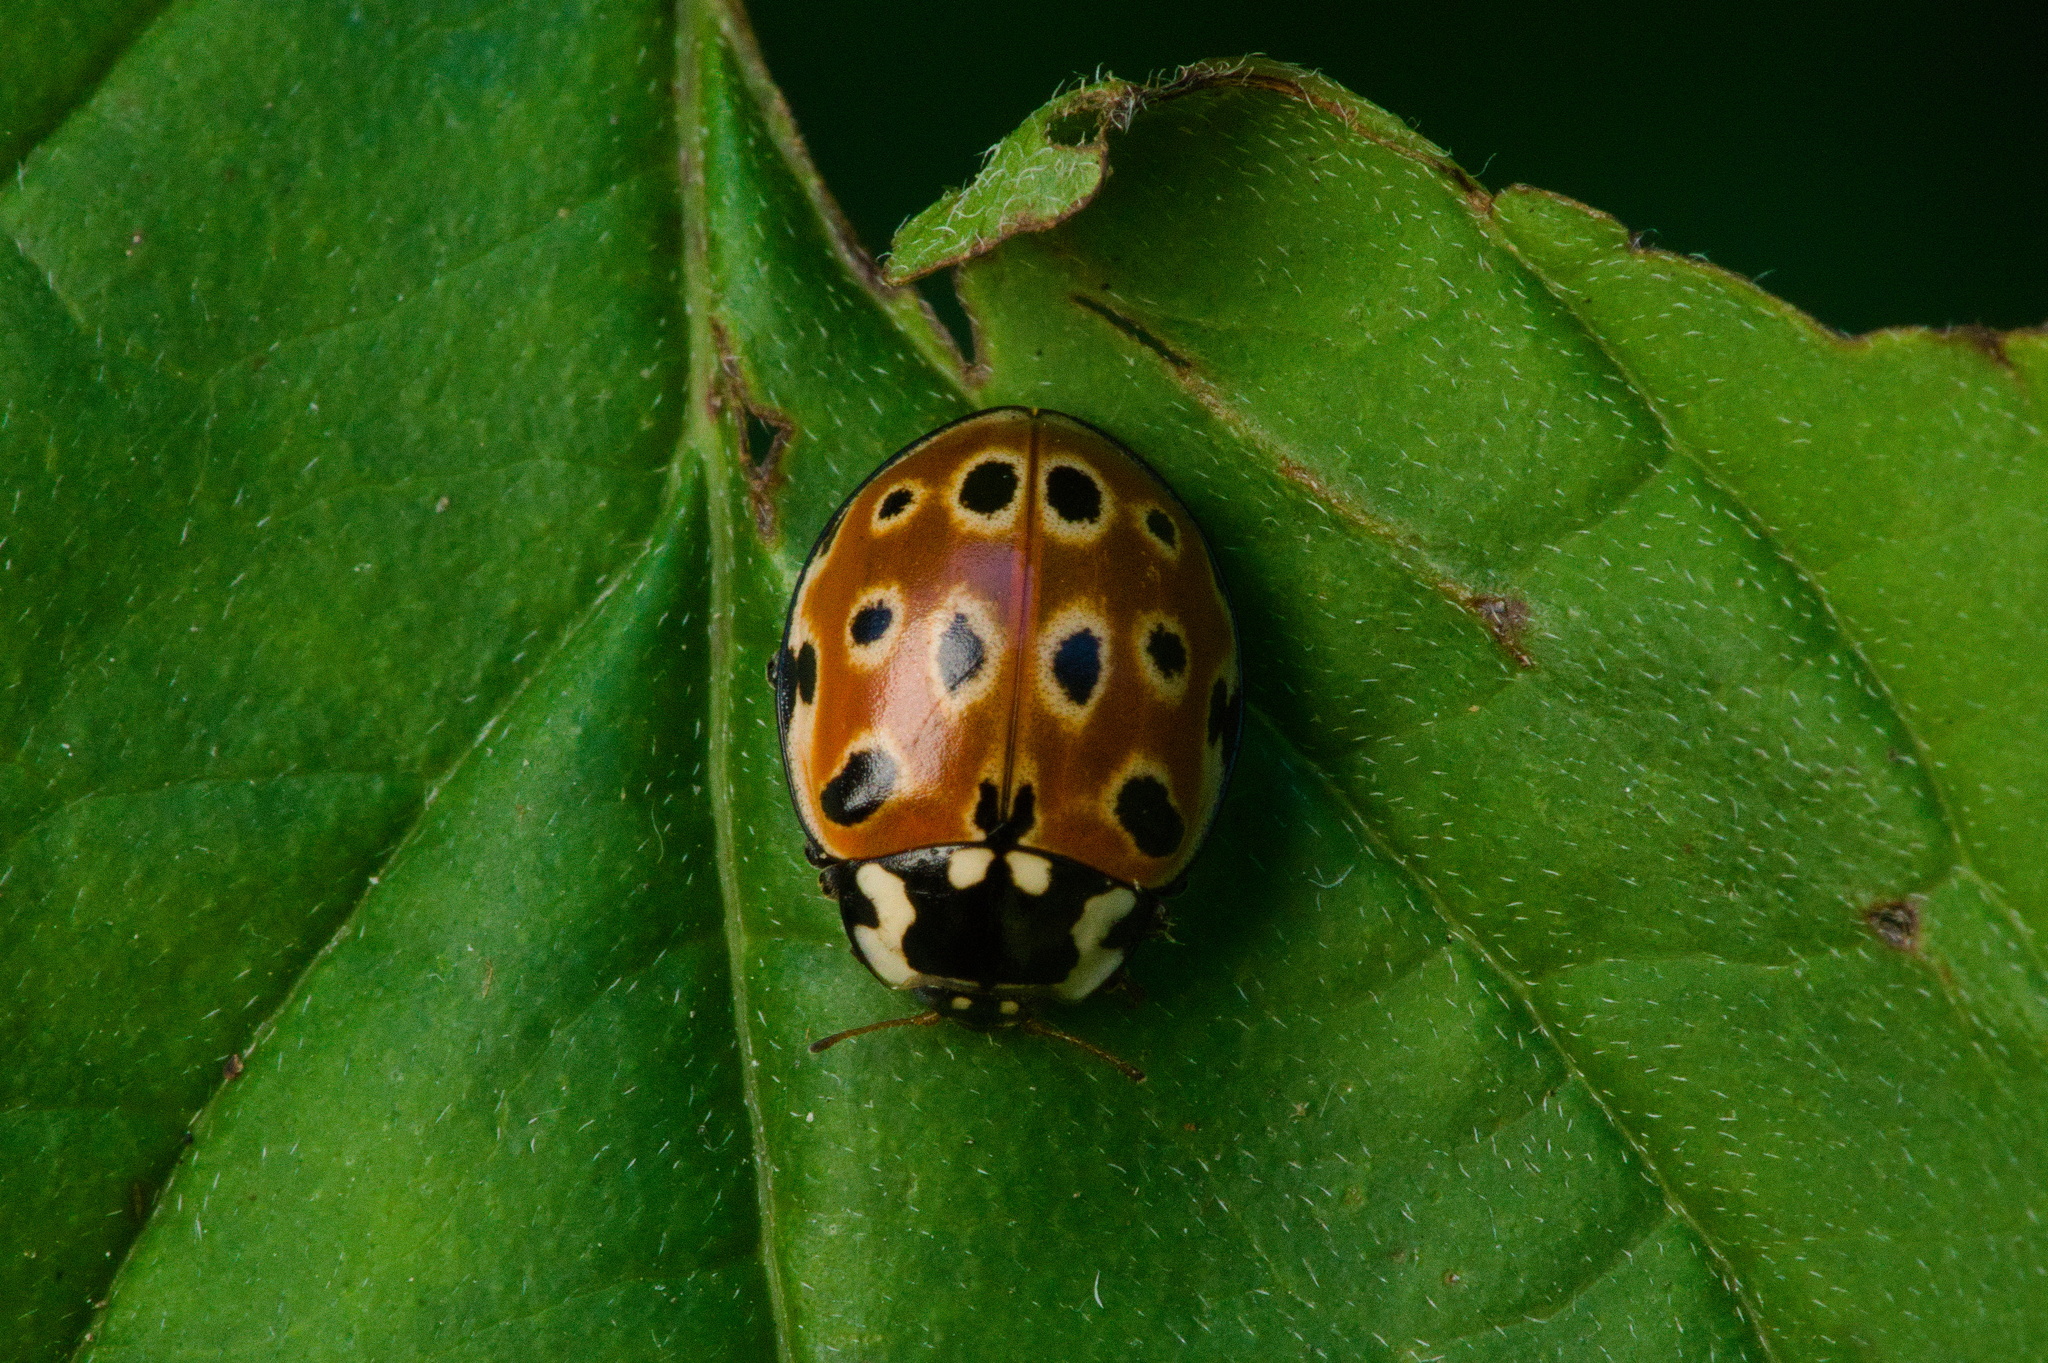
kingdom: Animalia
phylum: Arthropoda
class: Insecta
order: Coleoptera
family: Coccinellidae
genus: Anatis
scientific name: Anatis ocellata
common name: Eyed ladybird
